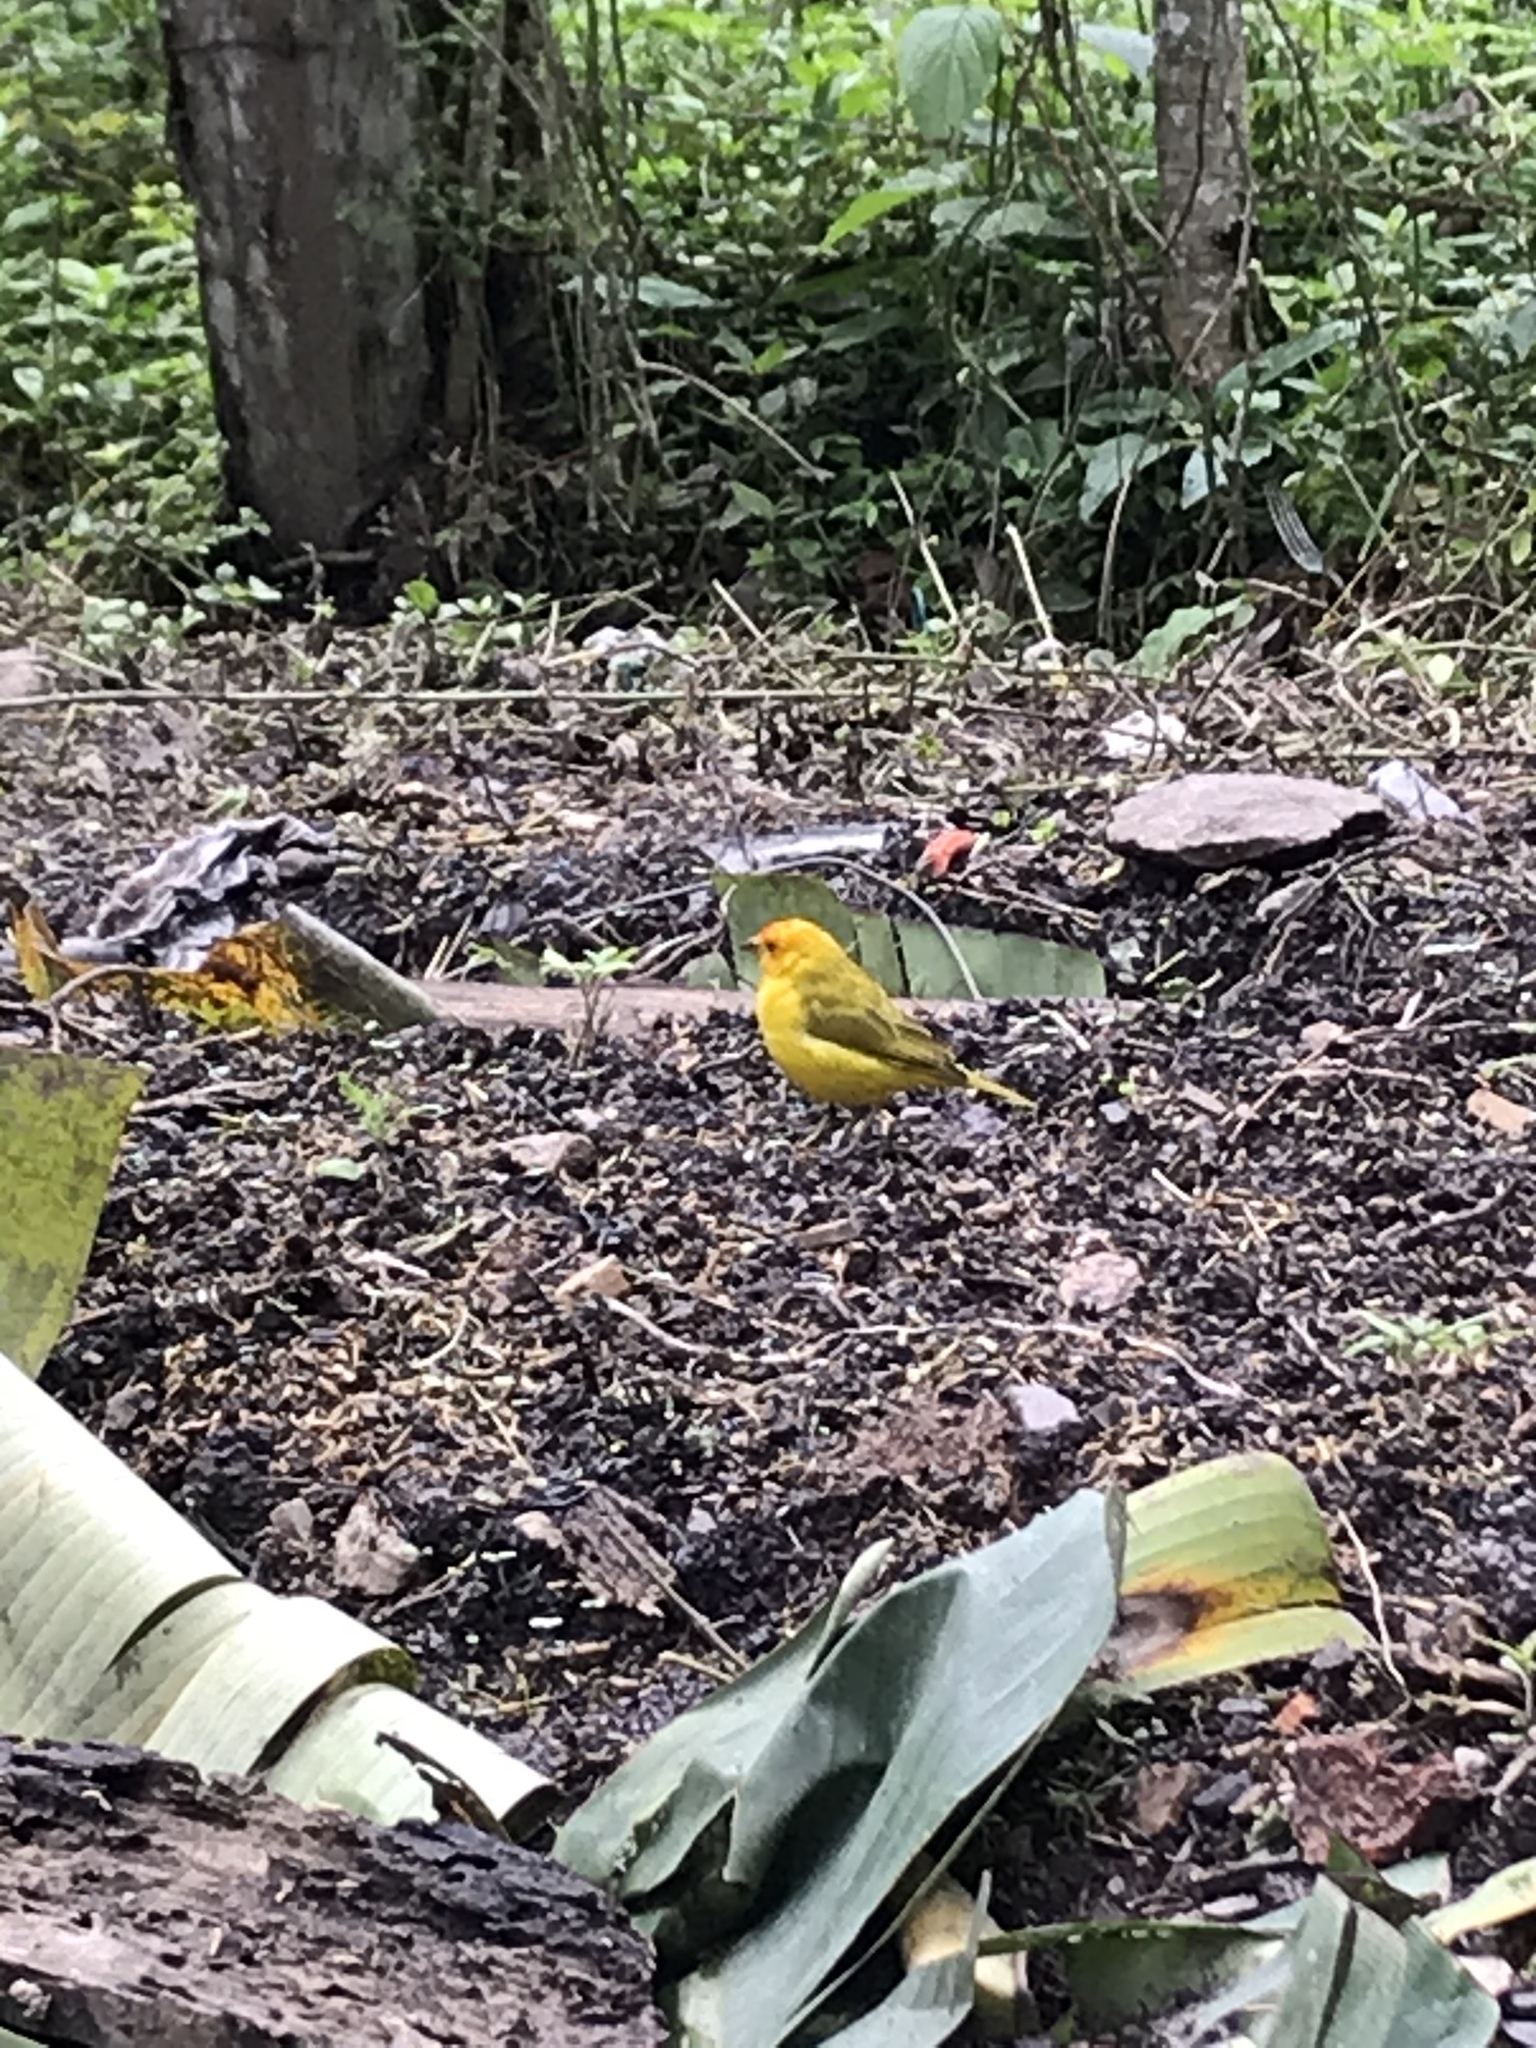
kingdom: Animalia
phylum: Chordata
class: Aves
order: Passeriformes
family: Thraupidae
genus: Sicalis
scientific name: Sicalis flaveola
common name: Saffron finch
